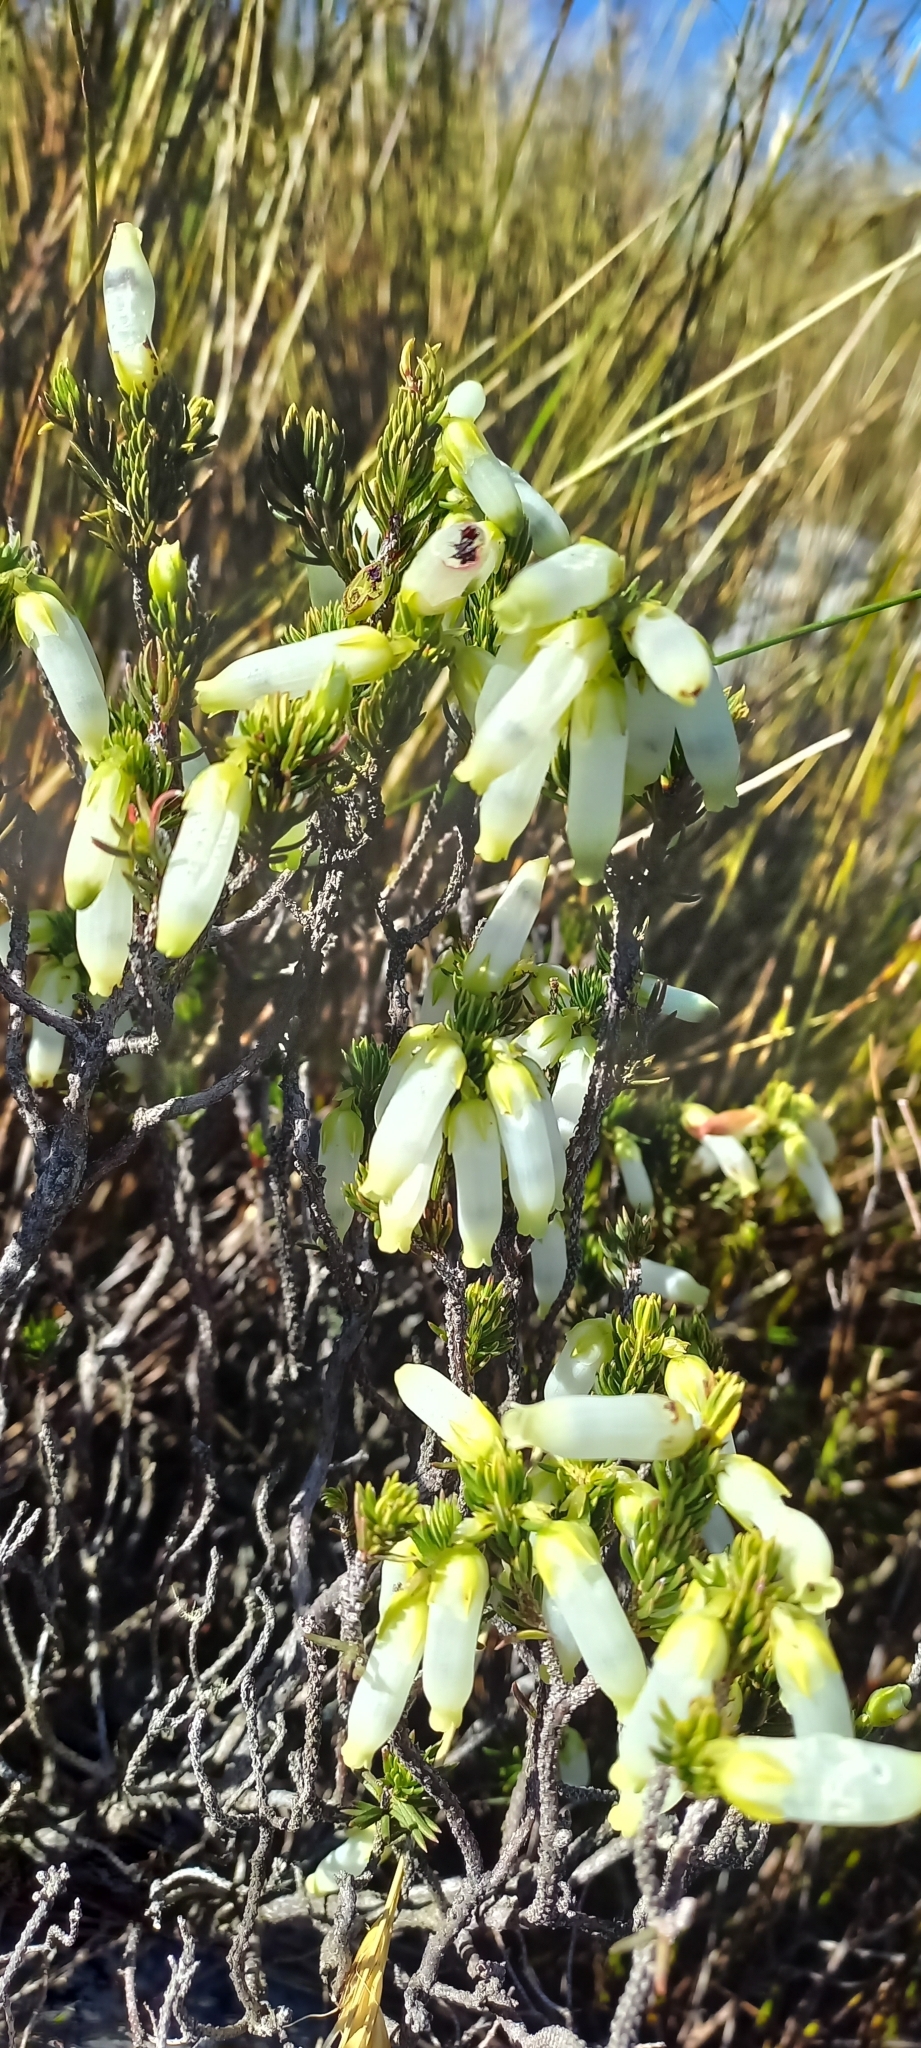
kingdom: Plantae
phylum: Tracheophyta
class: Magnoliopsida
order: Ericales
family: Ericaceae
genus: Erica
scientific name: Erica mammosa
